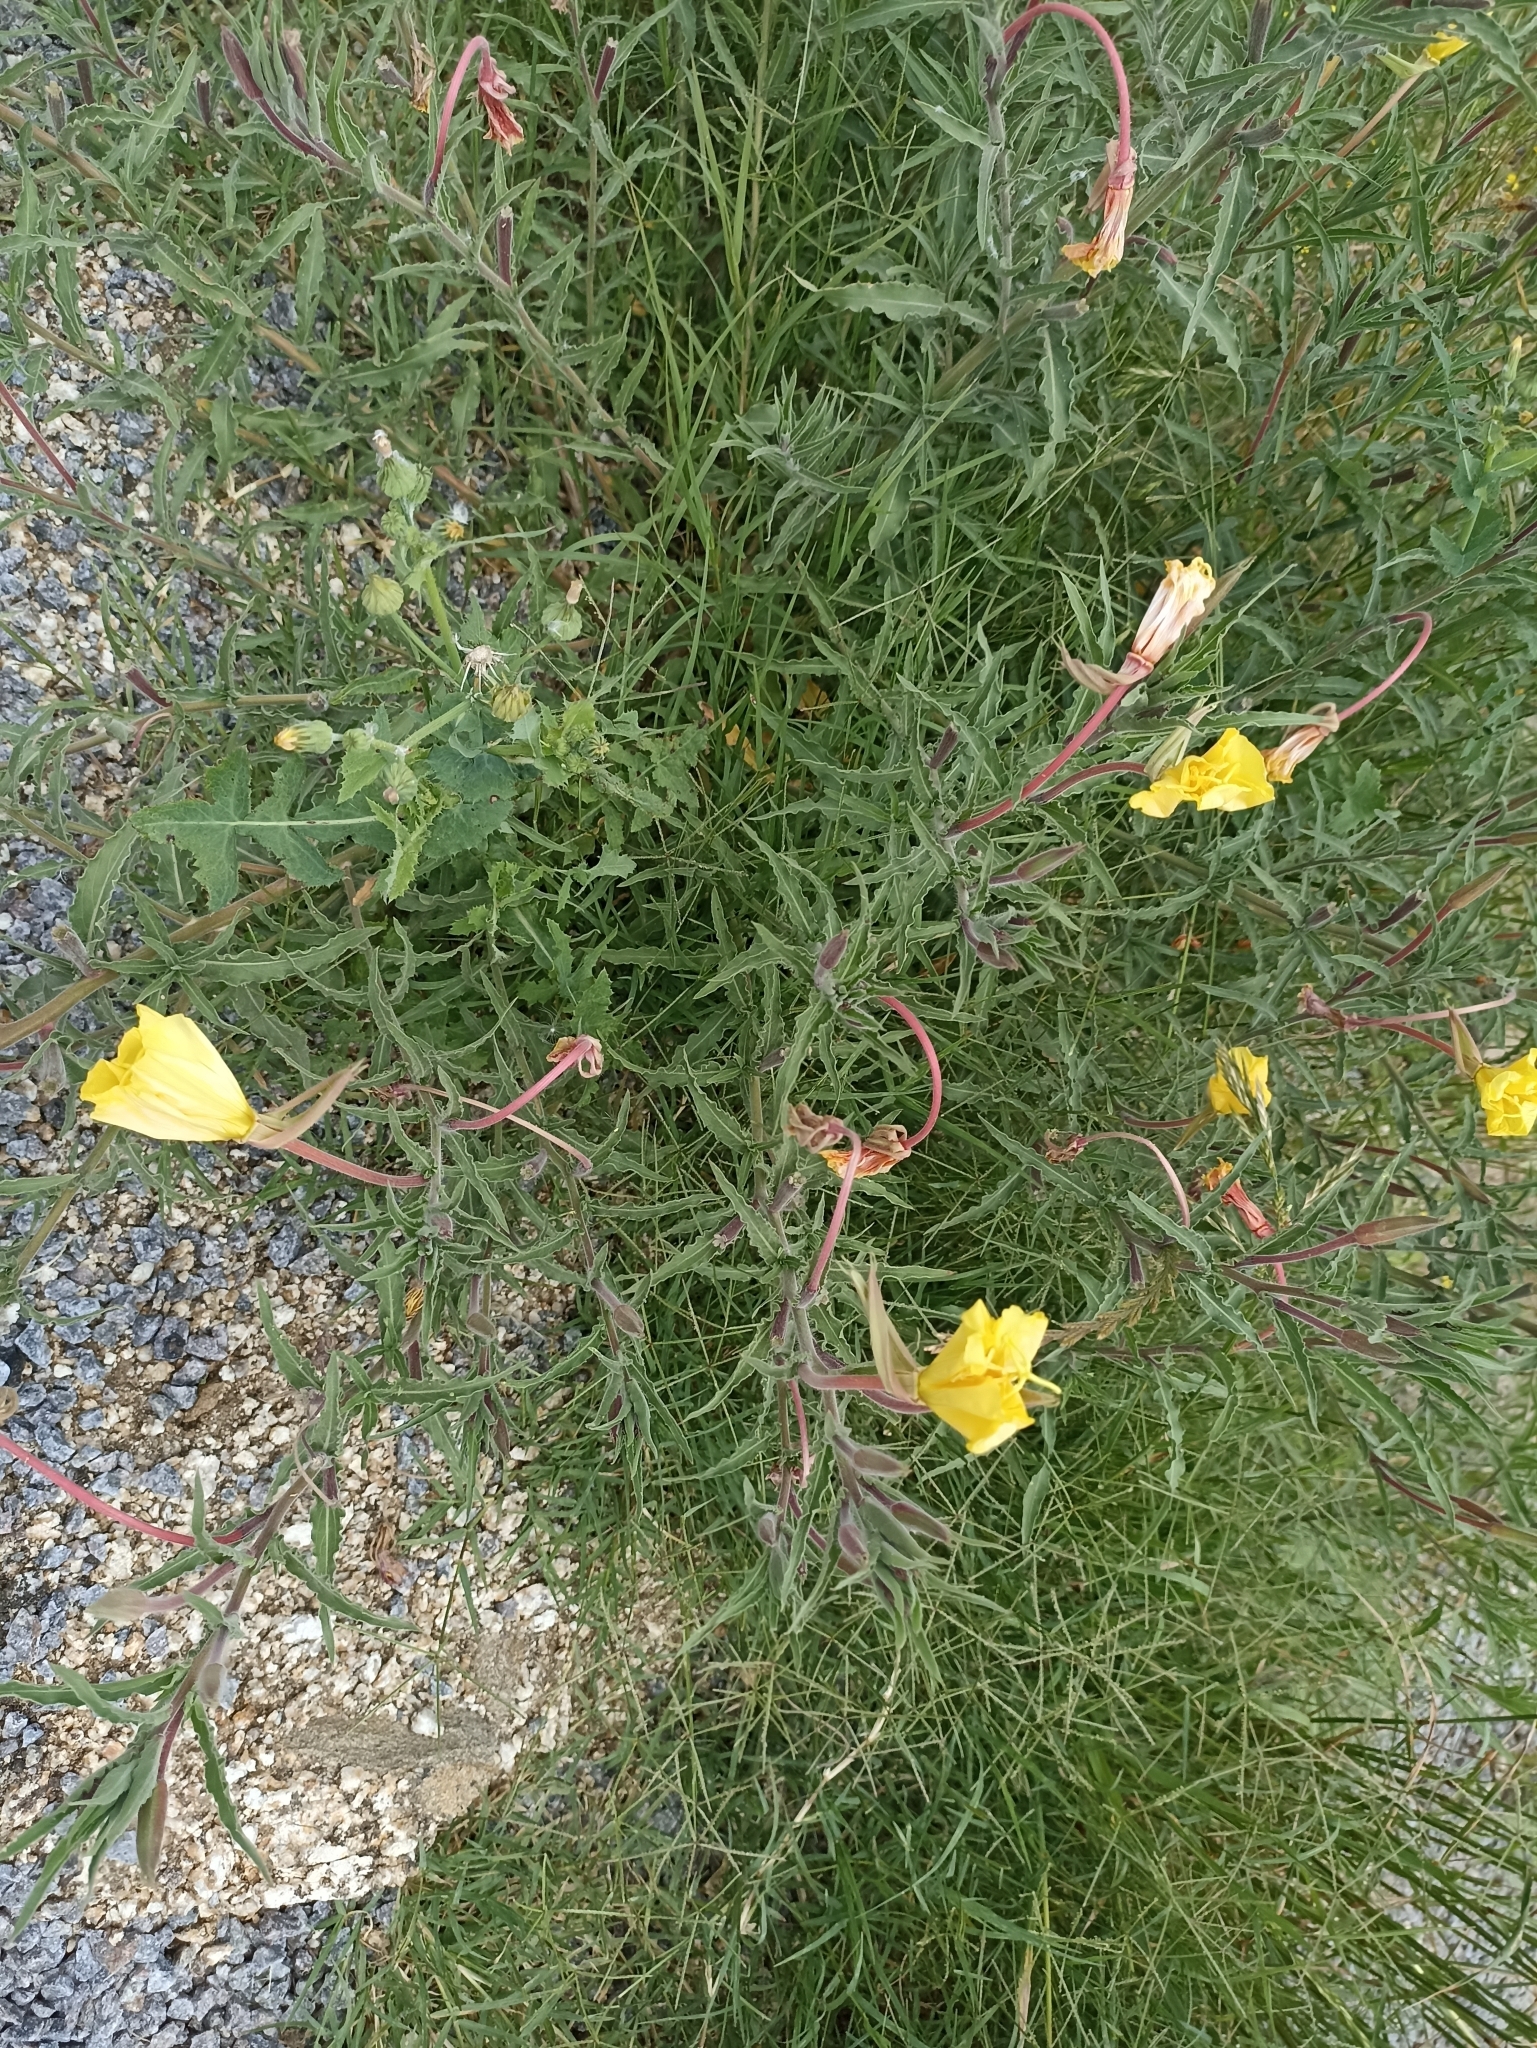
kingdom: Plantae
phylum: Tracheophyta
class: Magnoliopsida
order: Myrtales
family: Onagraceae
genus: Oenothera
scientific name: Oenothera affinis
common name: Longflower evening primrose
